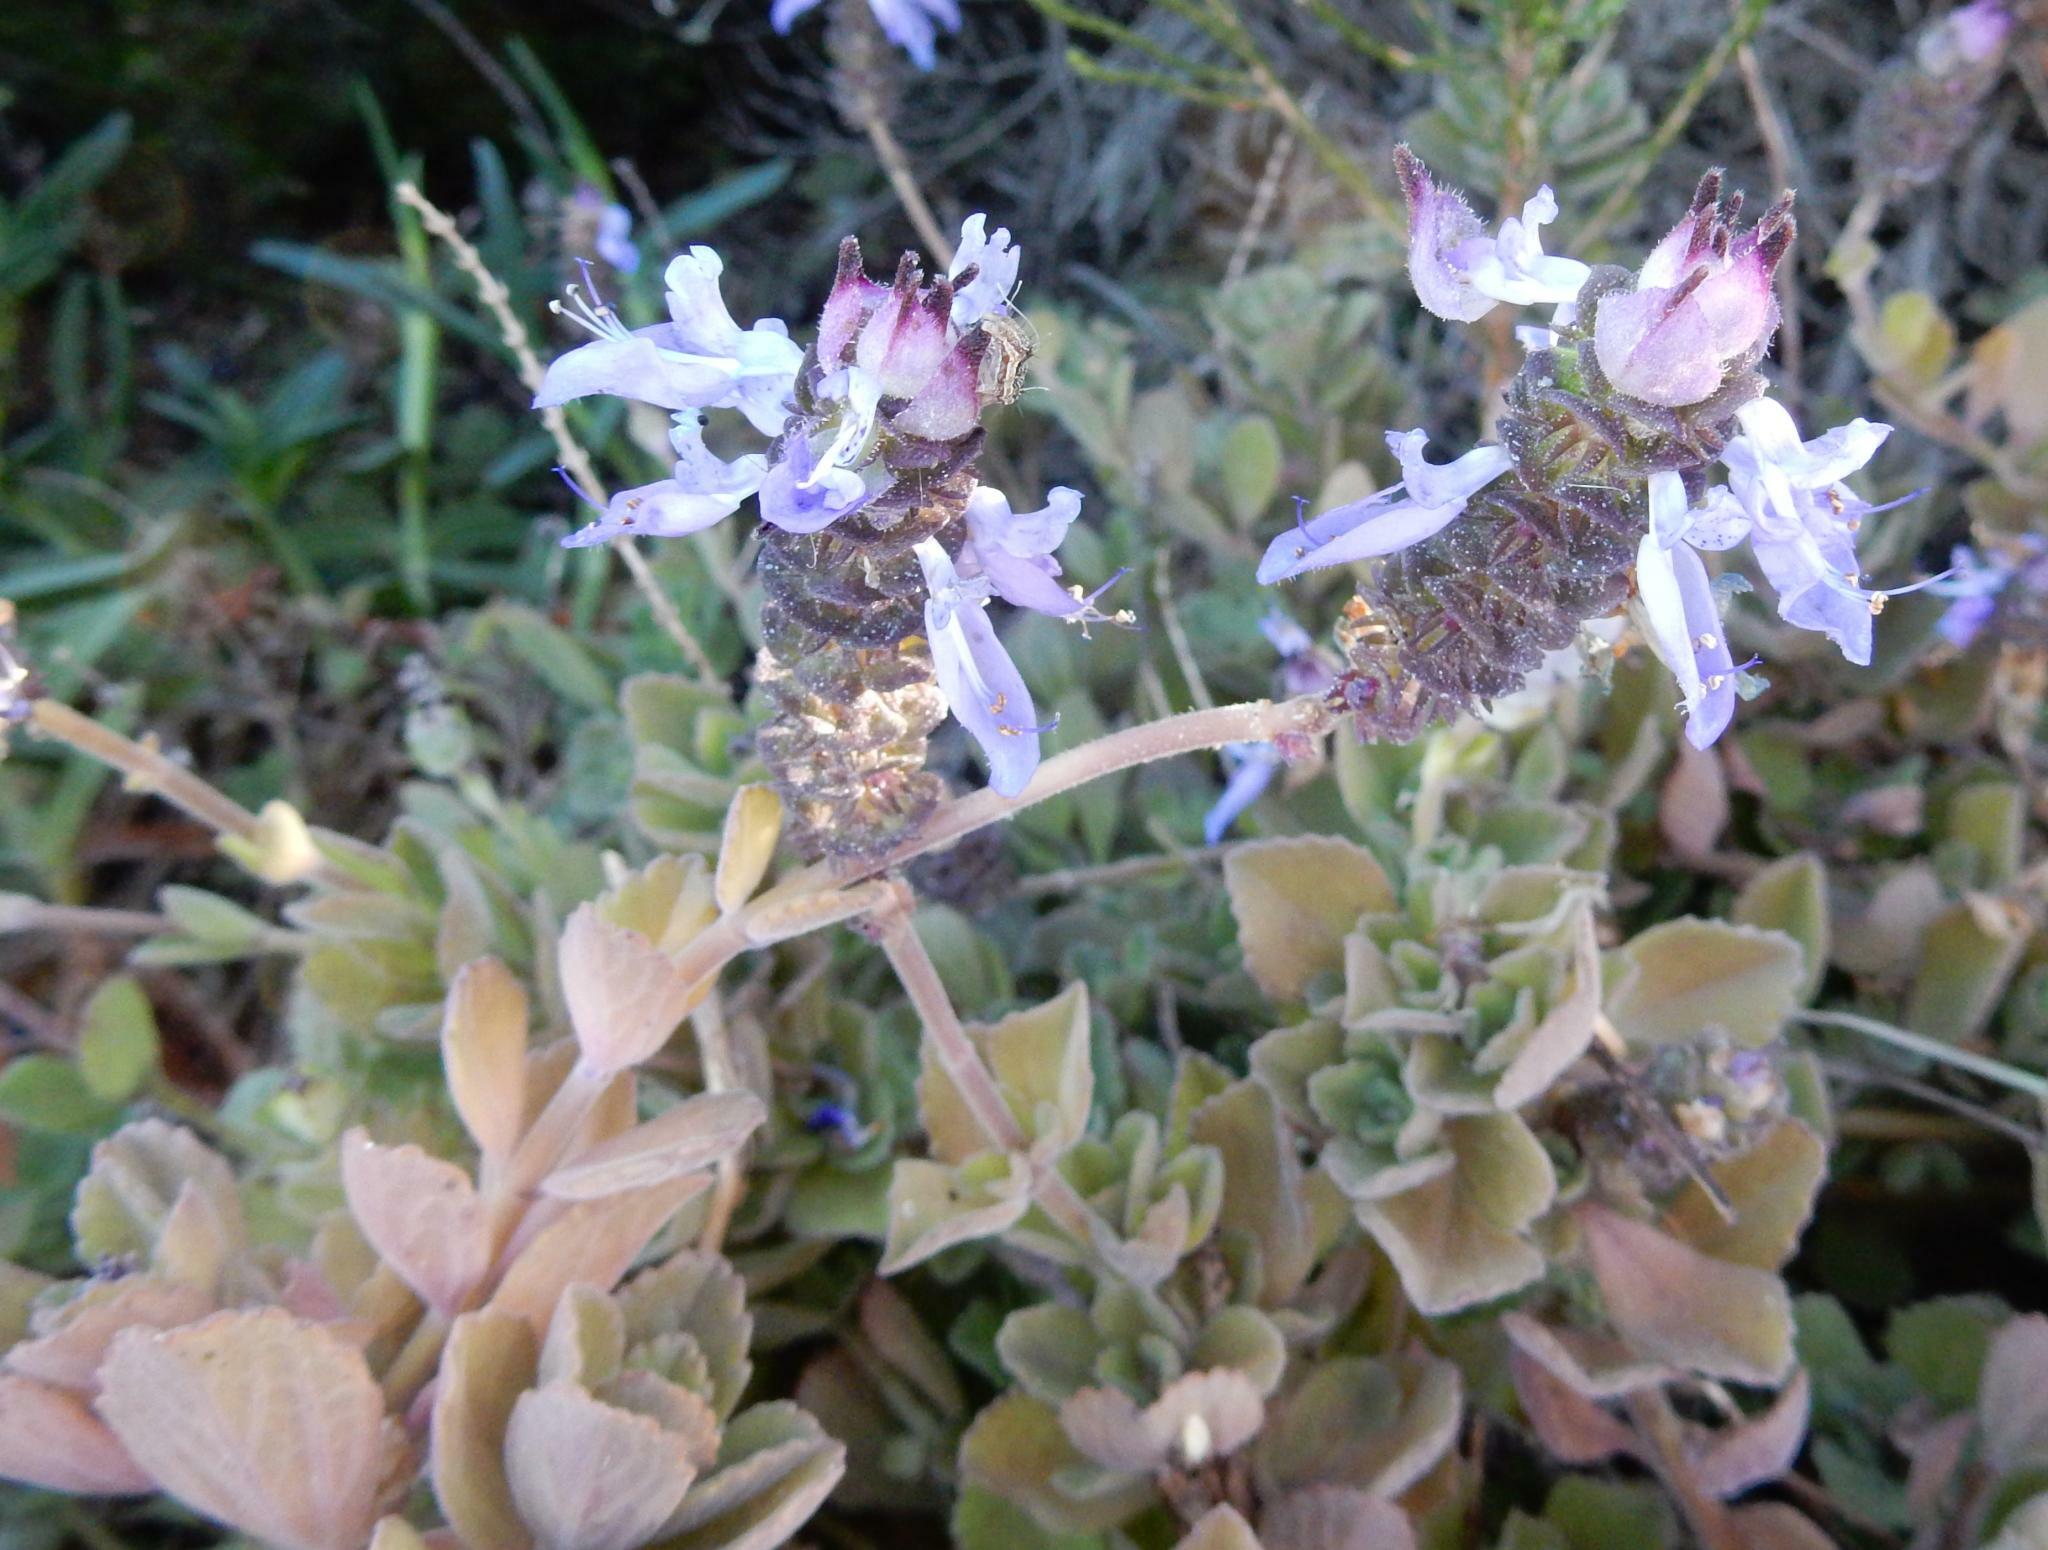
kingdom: Plantae
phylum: Tracheophyta
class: Magnoliopsida
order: Lamiales
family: Lamiaceae
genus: Coleus
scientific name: Coleus neochilus
